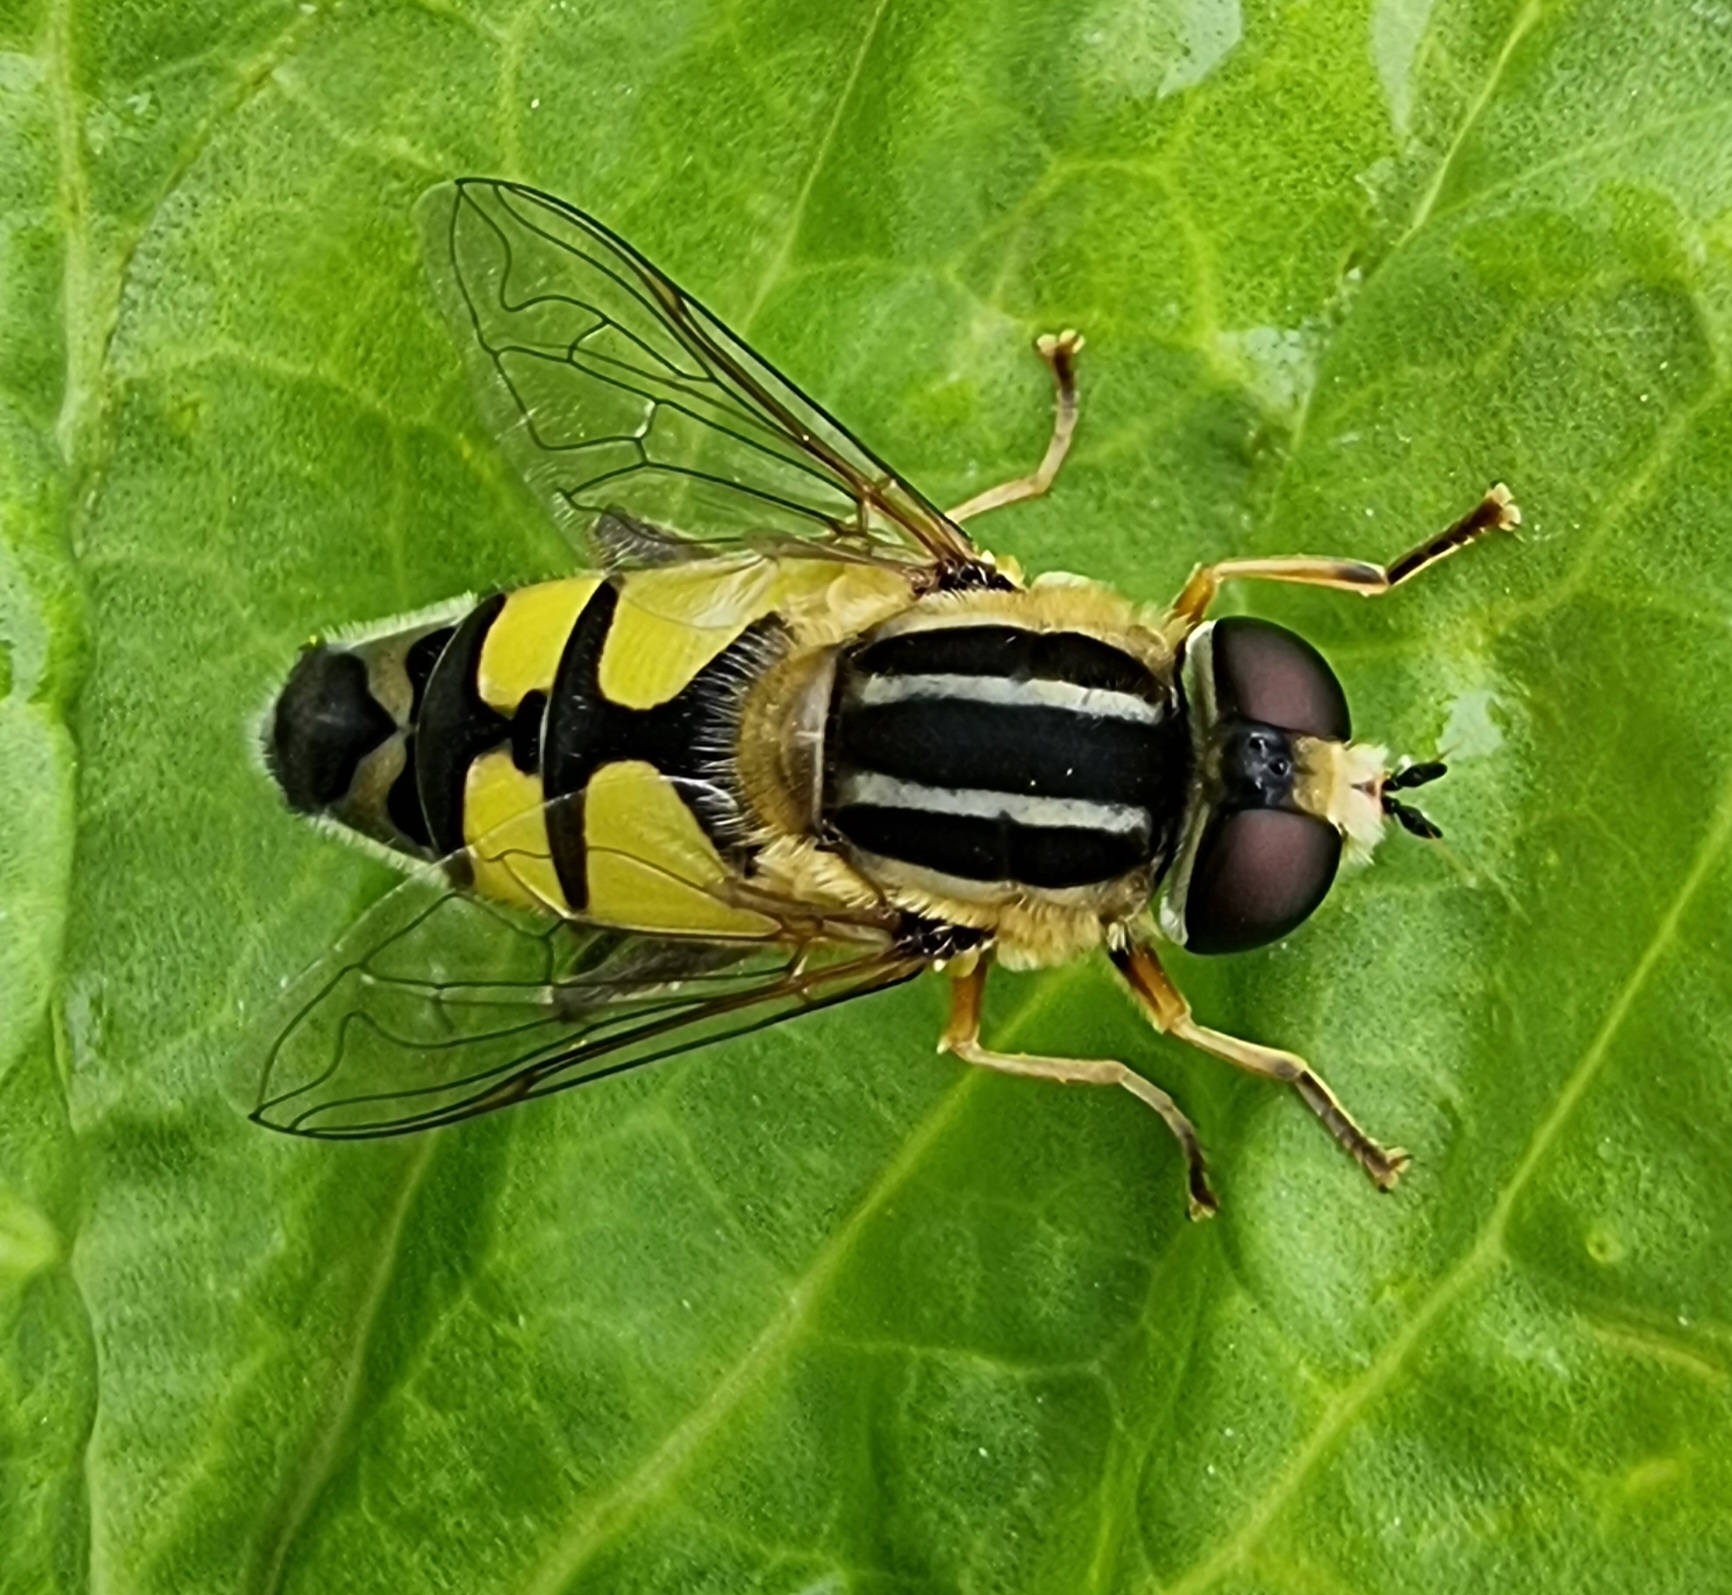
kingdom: Animalia
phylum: Arthropoda
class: Insecta
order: Diptera
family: Syrphidae
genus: Helophilus
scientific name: Helophilus trivittatus
